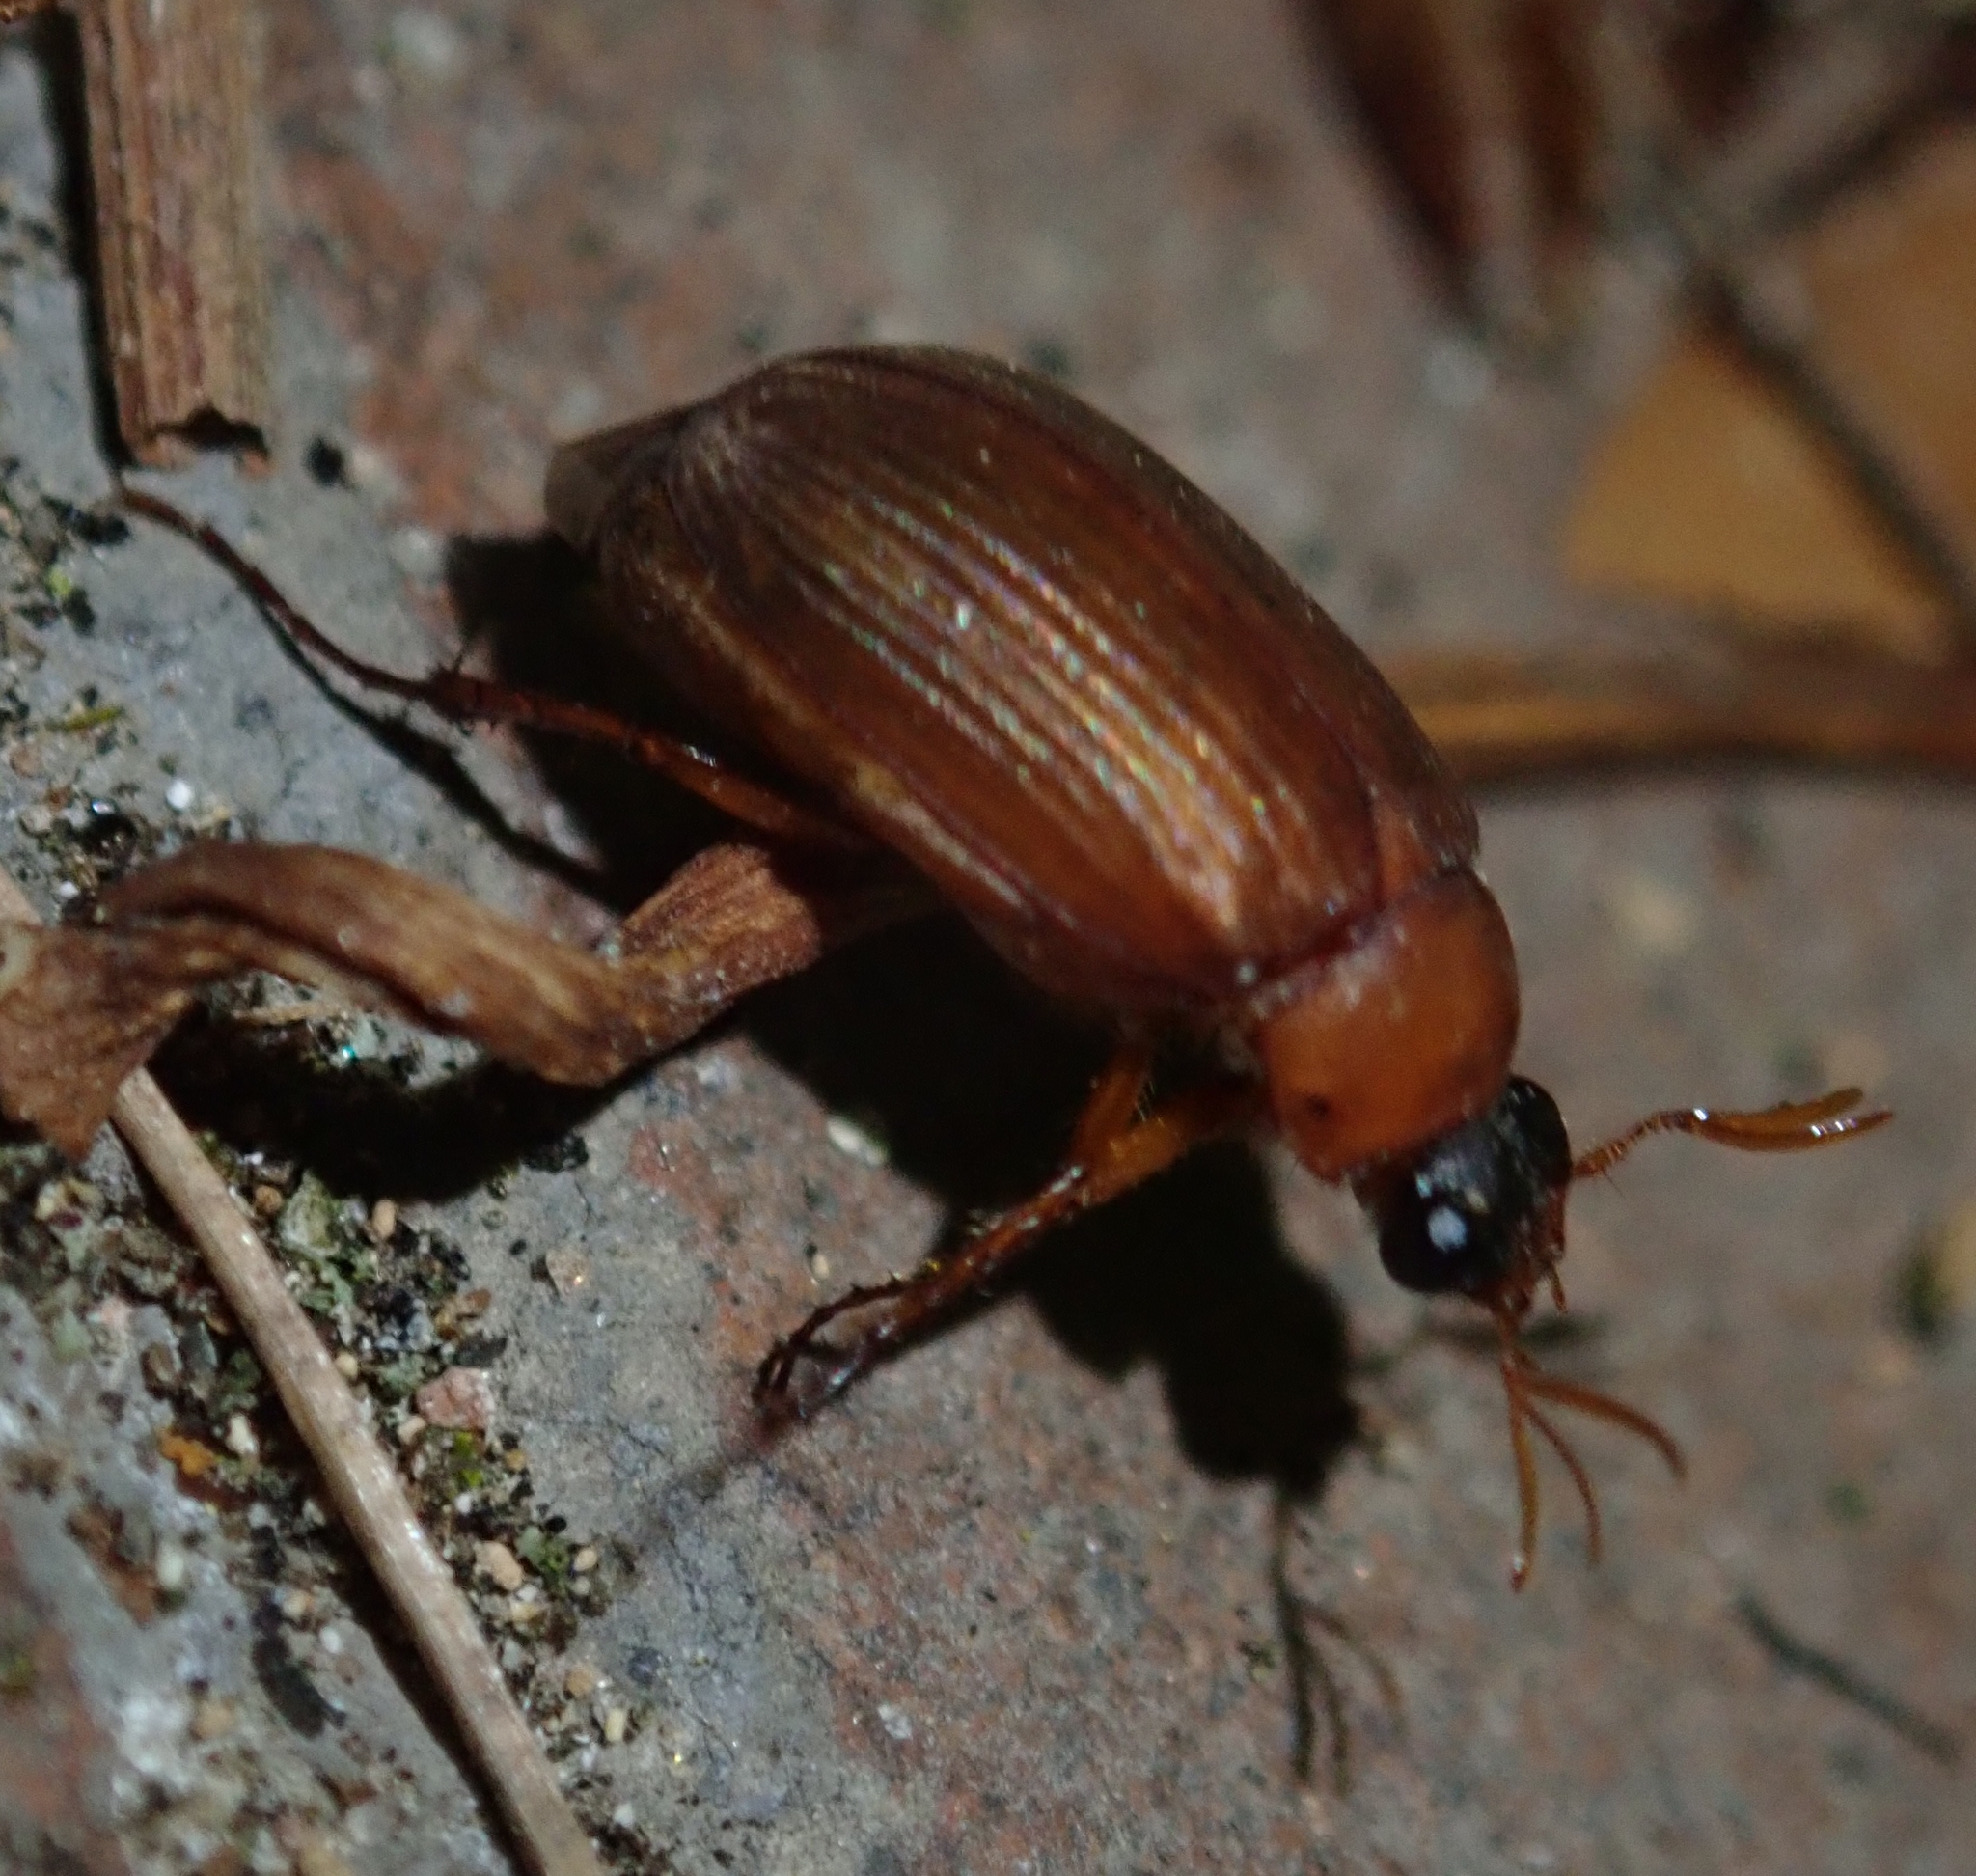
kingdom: Animalia
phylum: Arthropoda
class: Insecta
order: Coleoptera
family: Scarabaeidae
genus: Serica
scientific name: Serica brunnea
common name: Brown chafer
